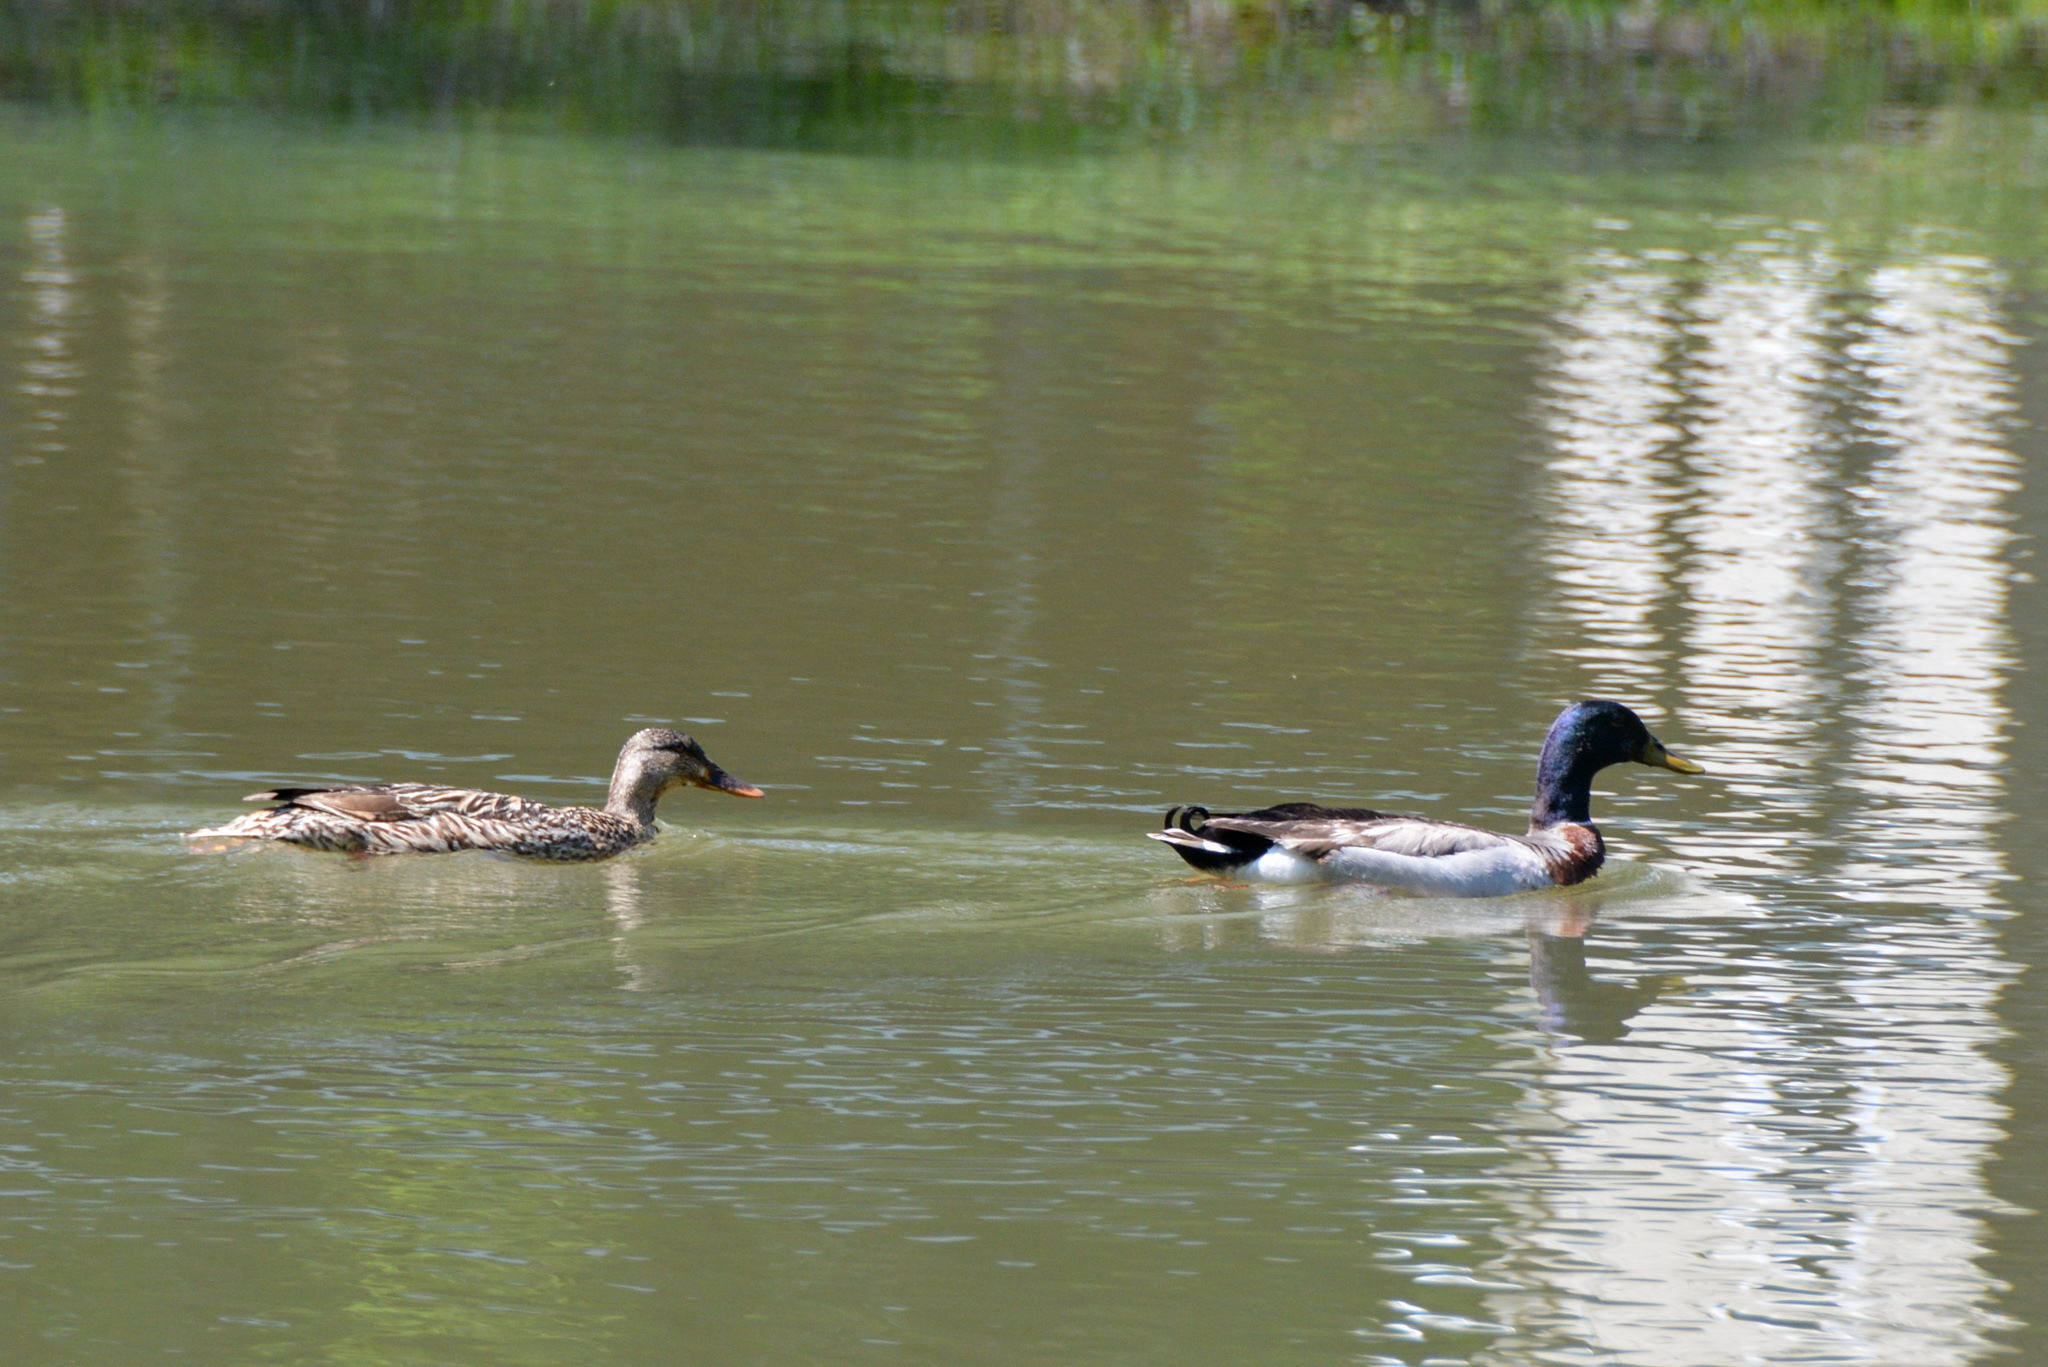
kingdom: Animalia
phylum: Chordata
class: Aves
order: Anseriformes
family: Anatidae
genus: Anas
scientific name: Anas platyrhynchos
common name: Mallard
